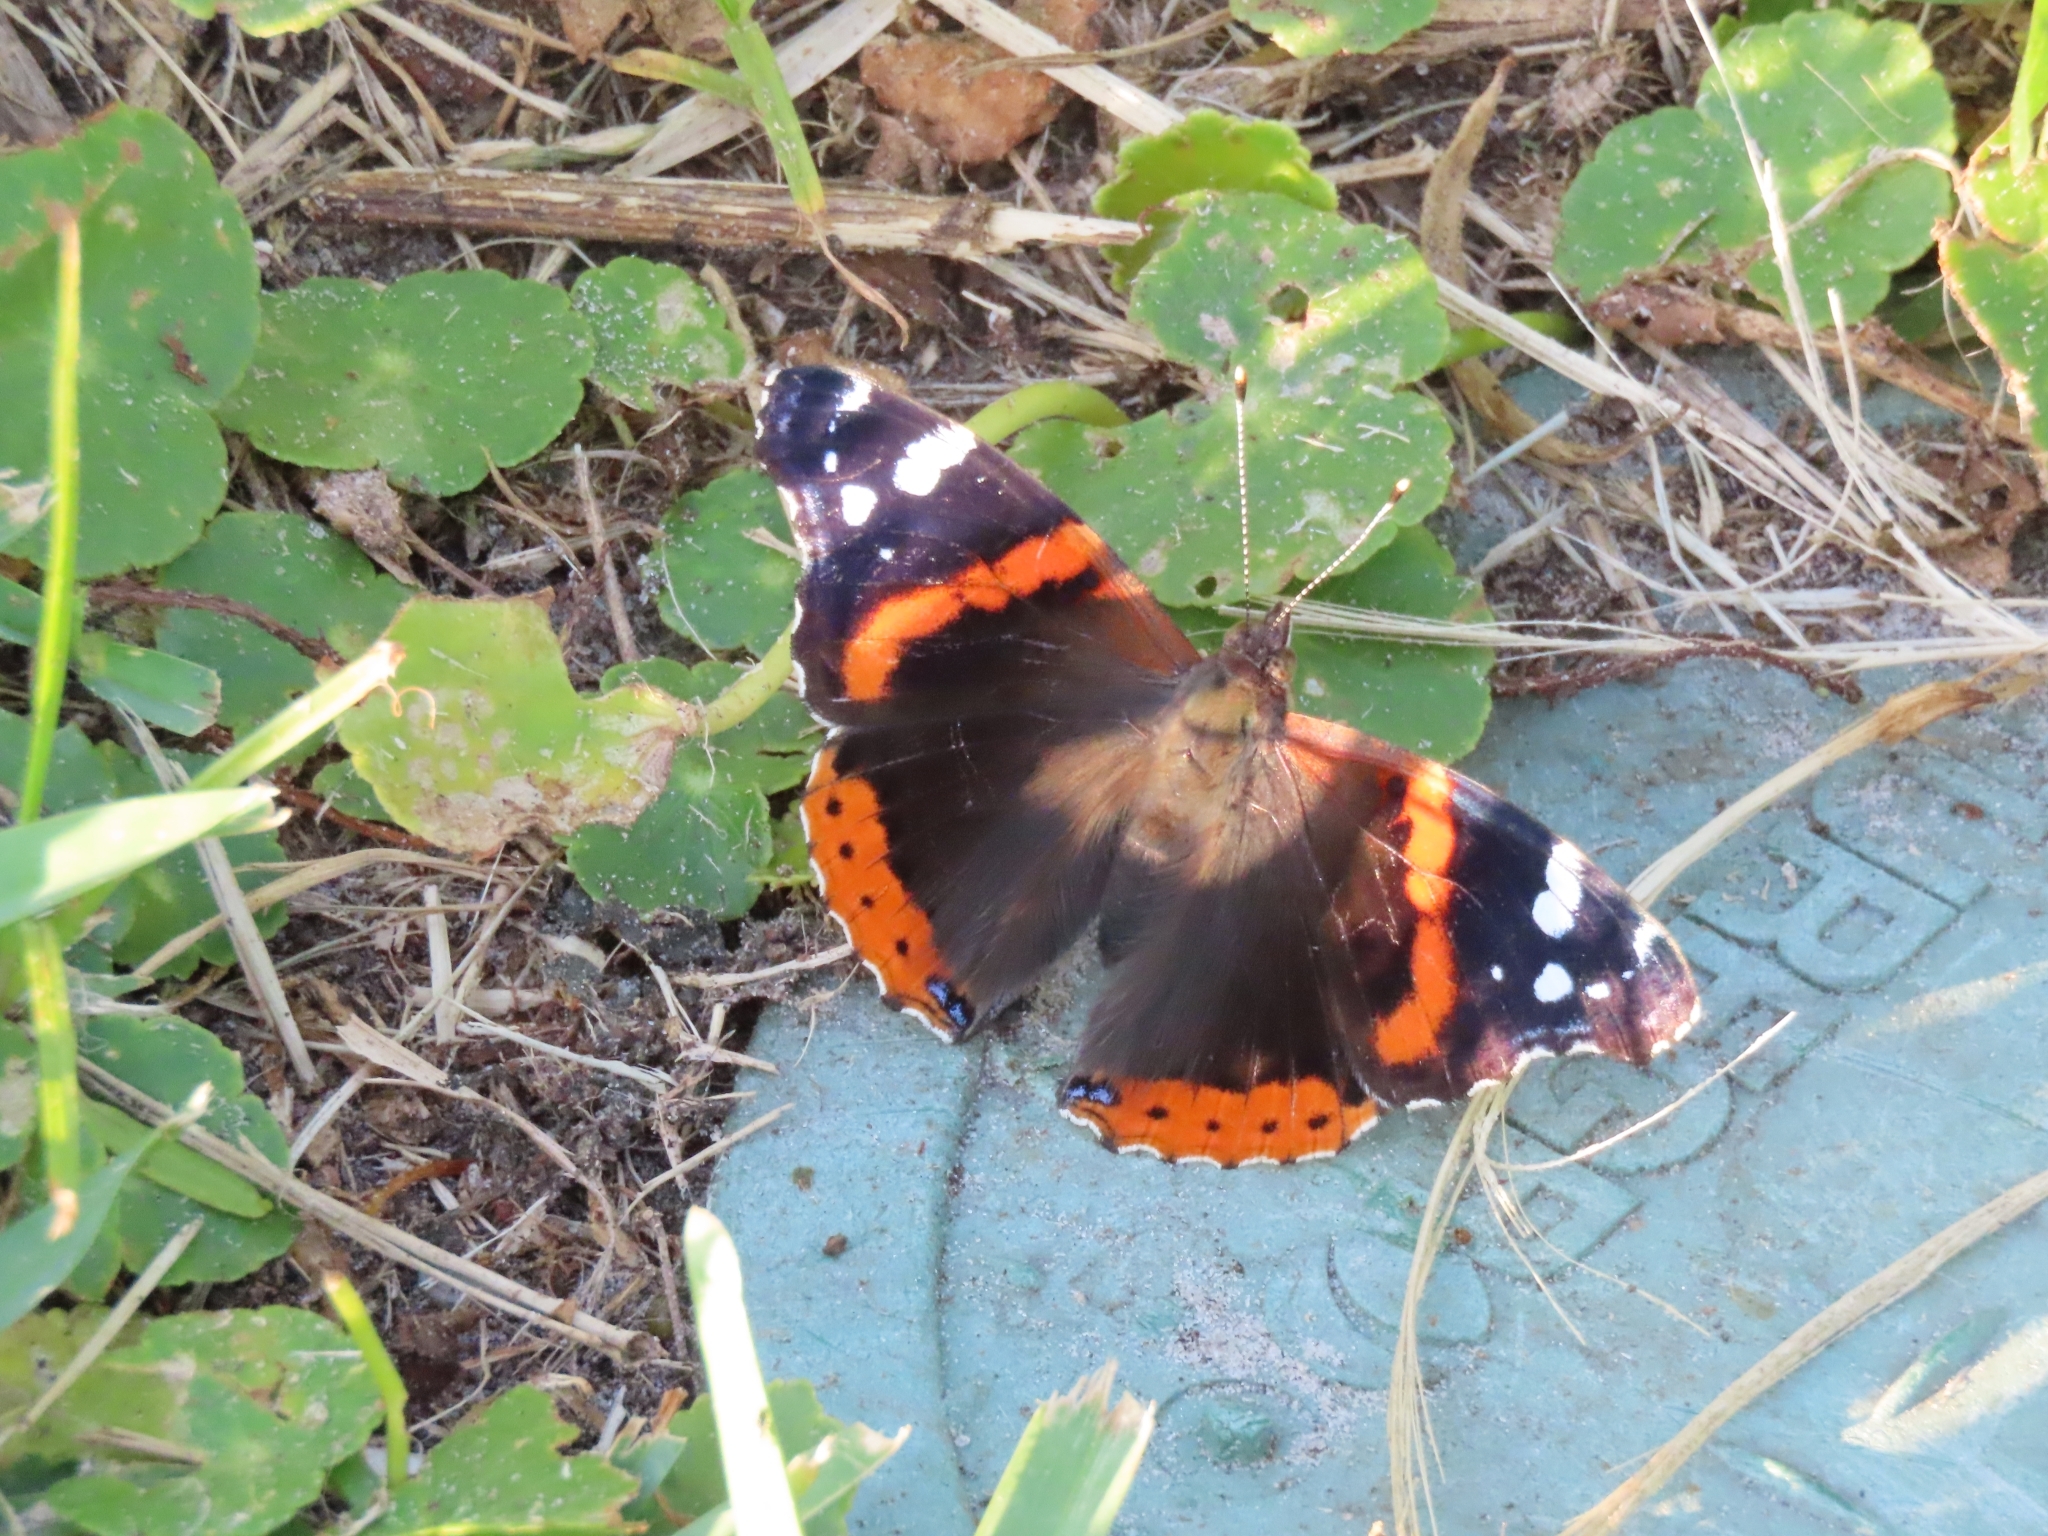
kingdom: Animalia
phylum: Arthropoda
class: Insecta
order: Lepidoptera
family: Nymphalidae
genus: Vanessa
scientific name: Vanessa atalanta
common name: Red admiral
